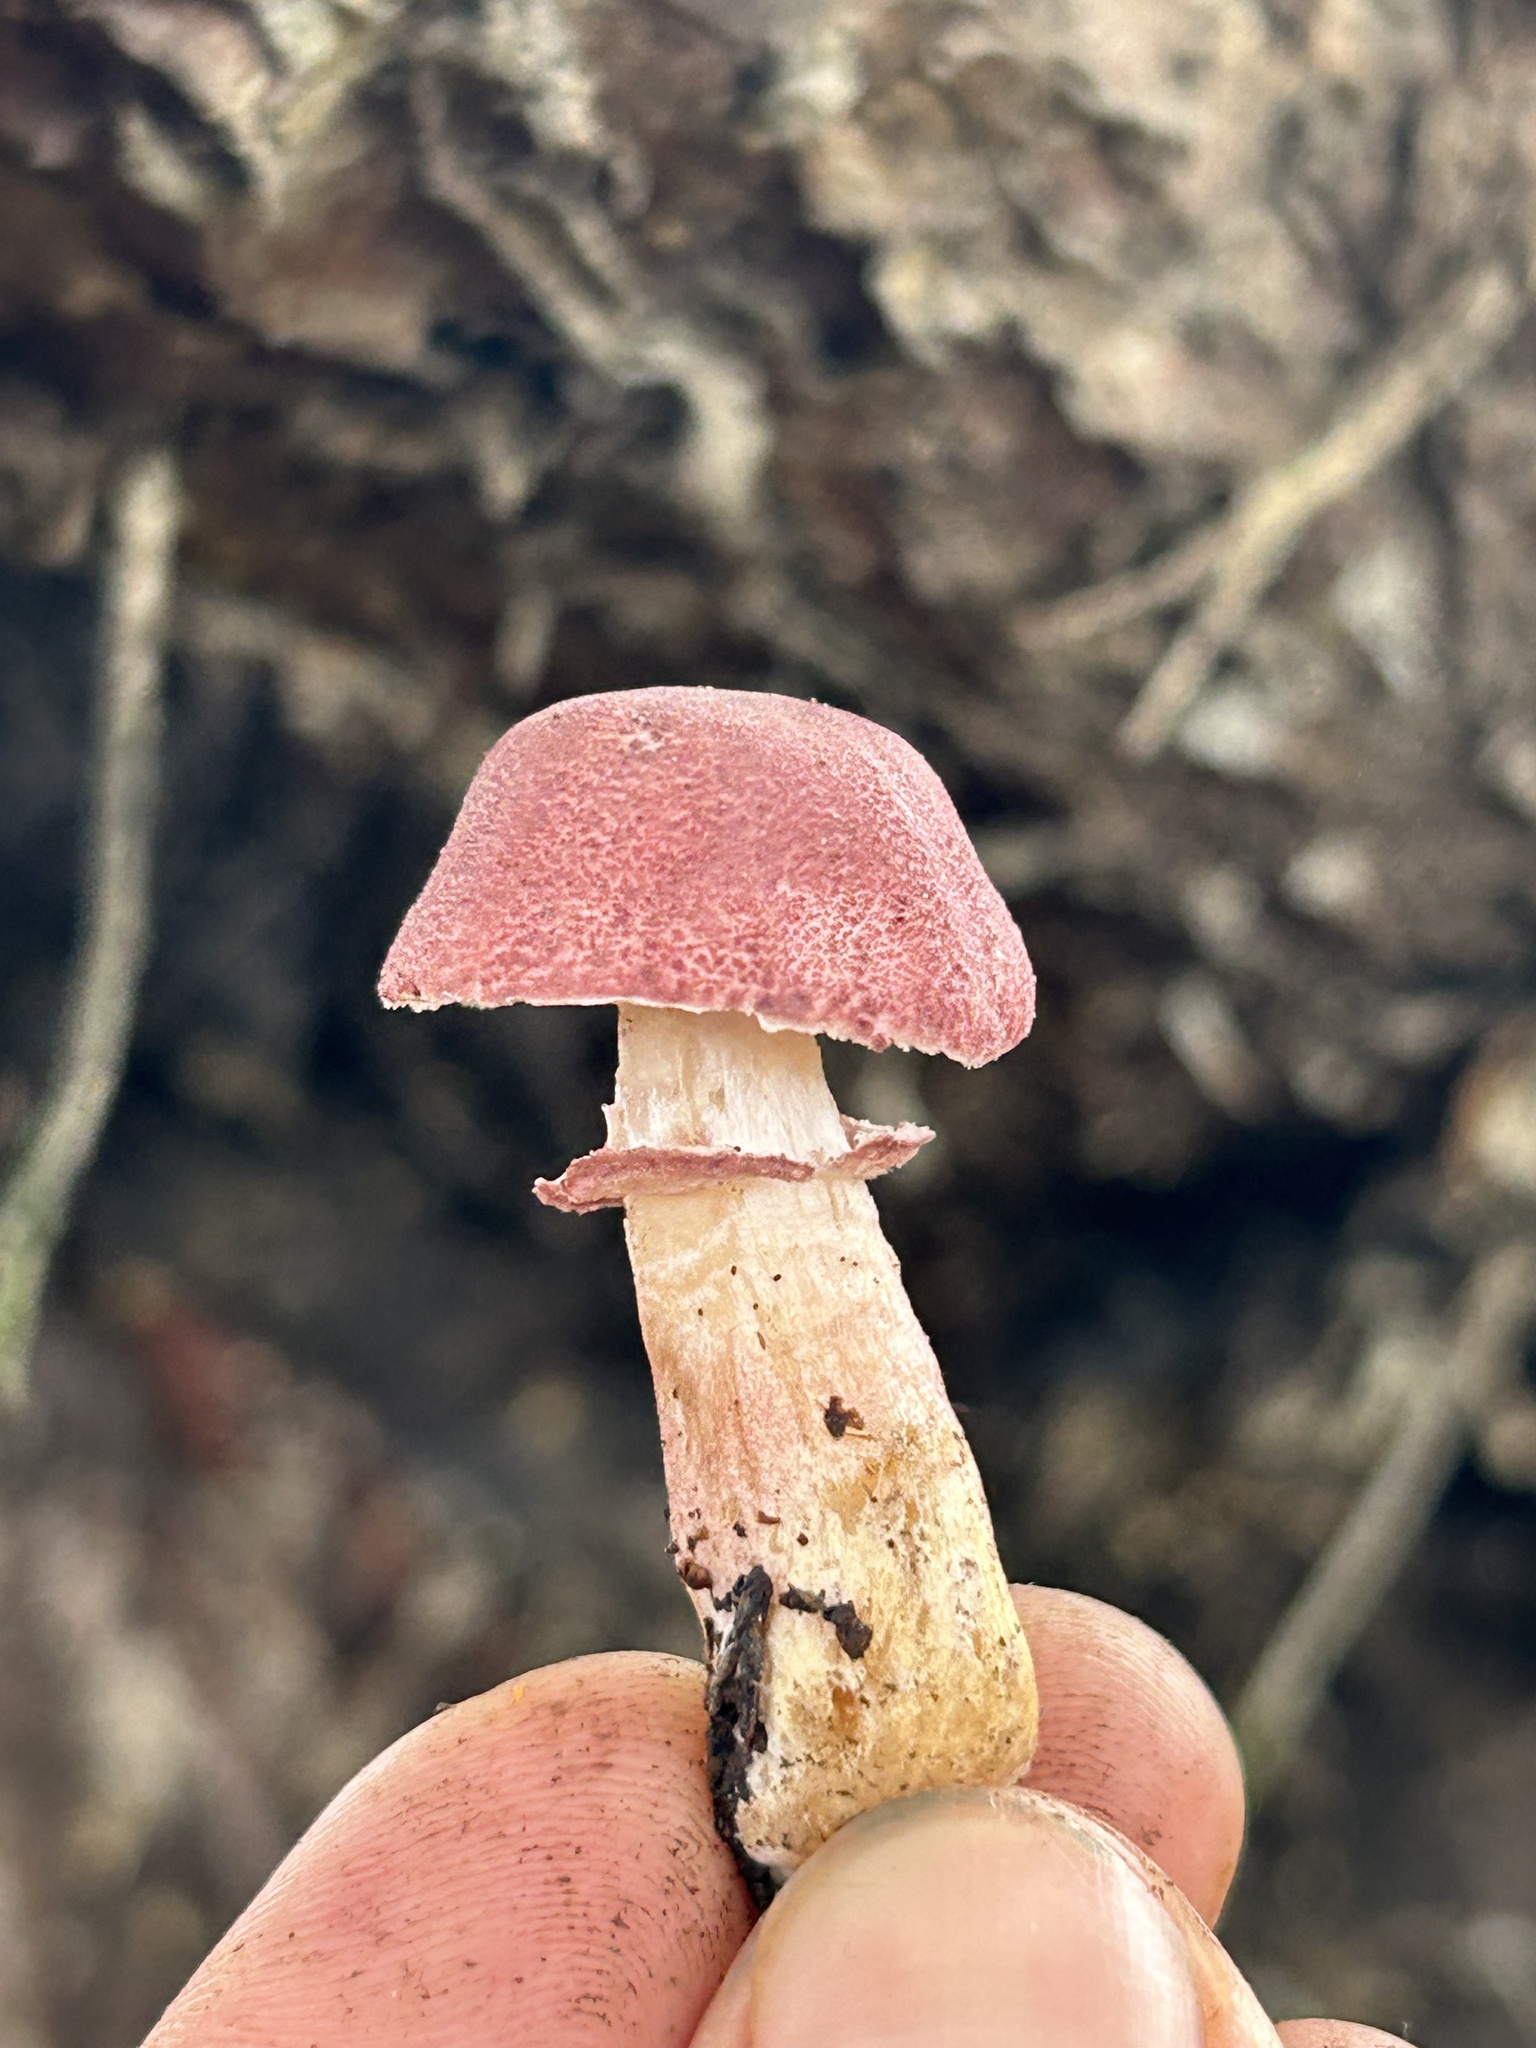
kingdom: Fungi
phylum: Basidiomycota
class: Agaricomycetes
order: Agaricales
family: Agaricaceae
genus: Lepiota
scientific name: Lepiota decorata
